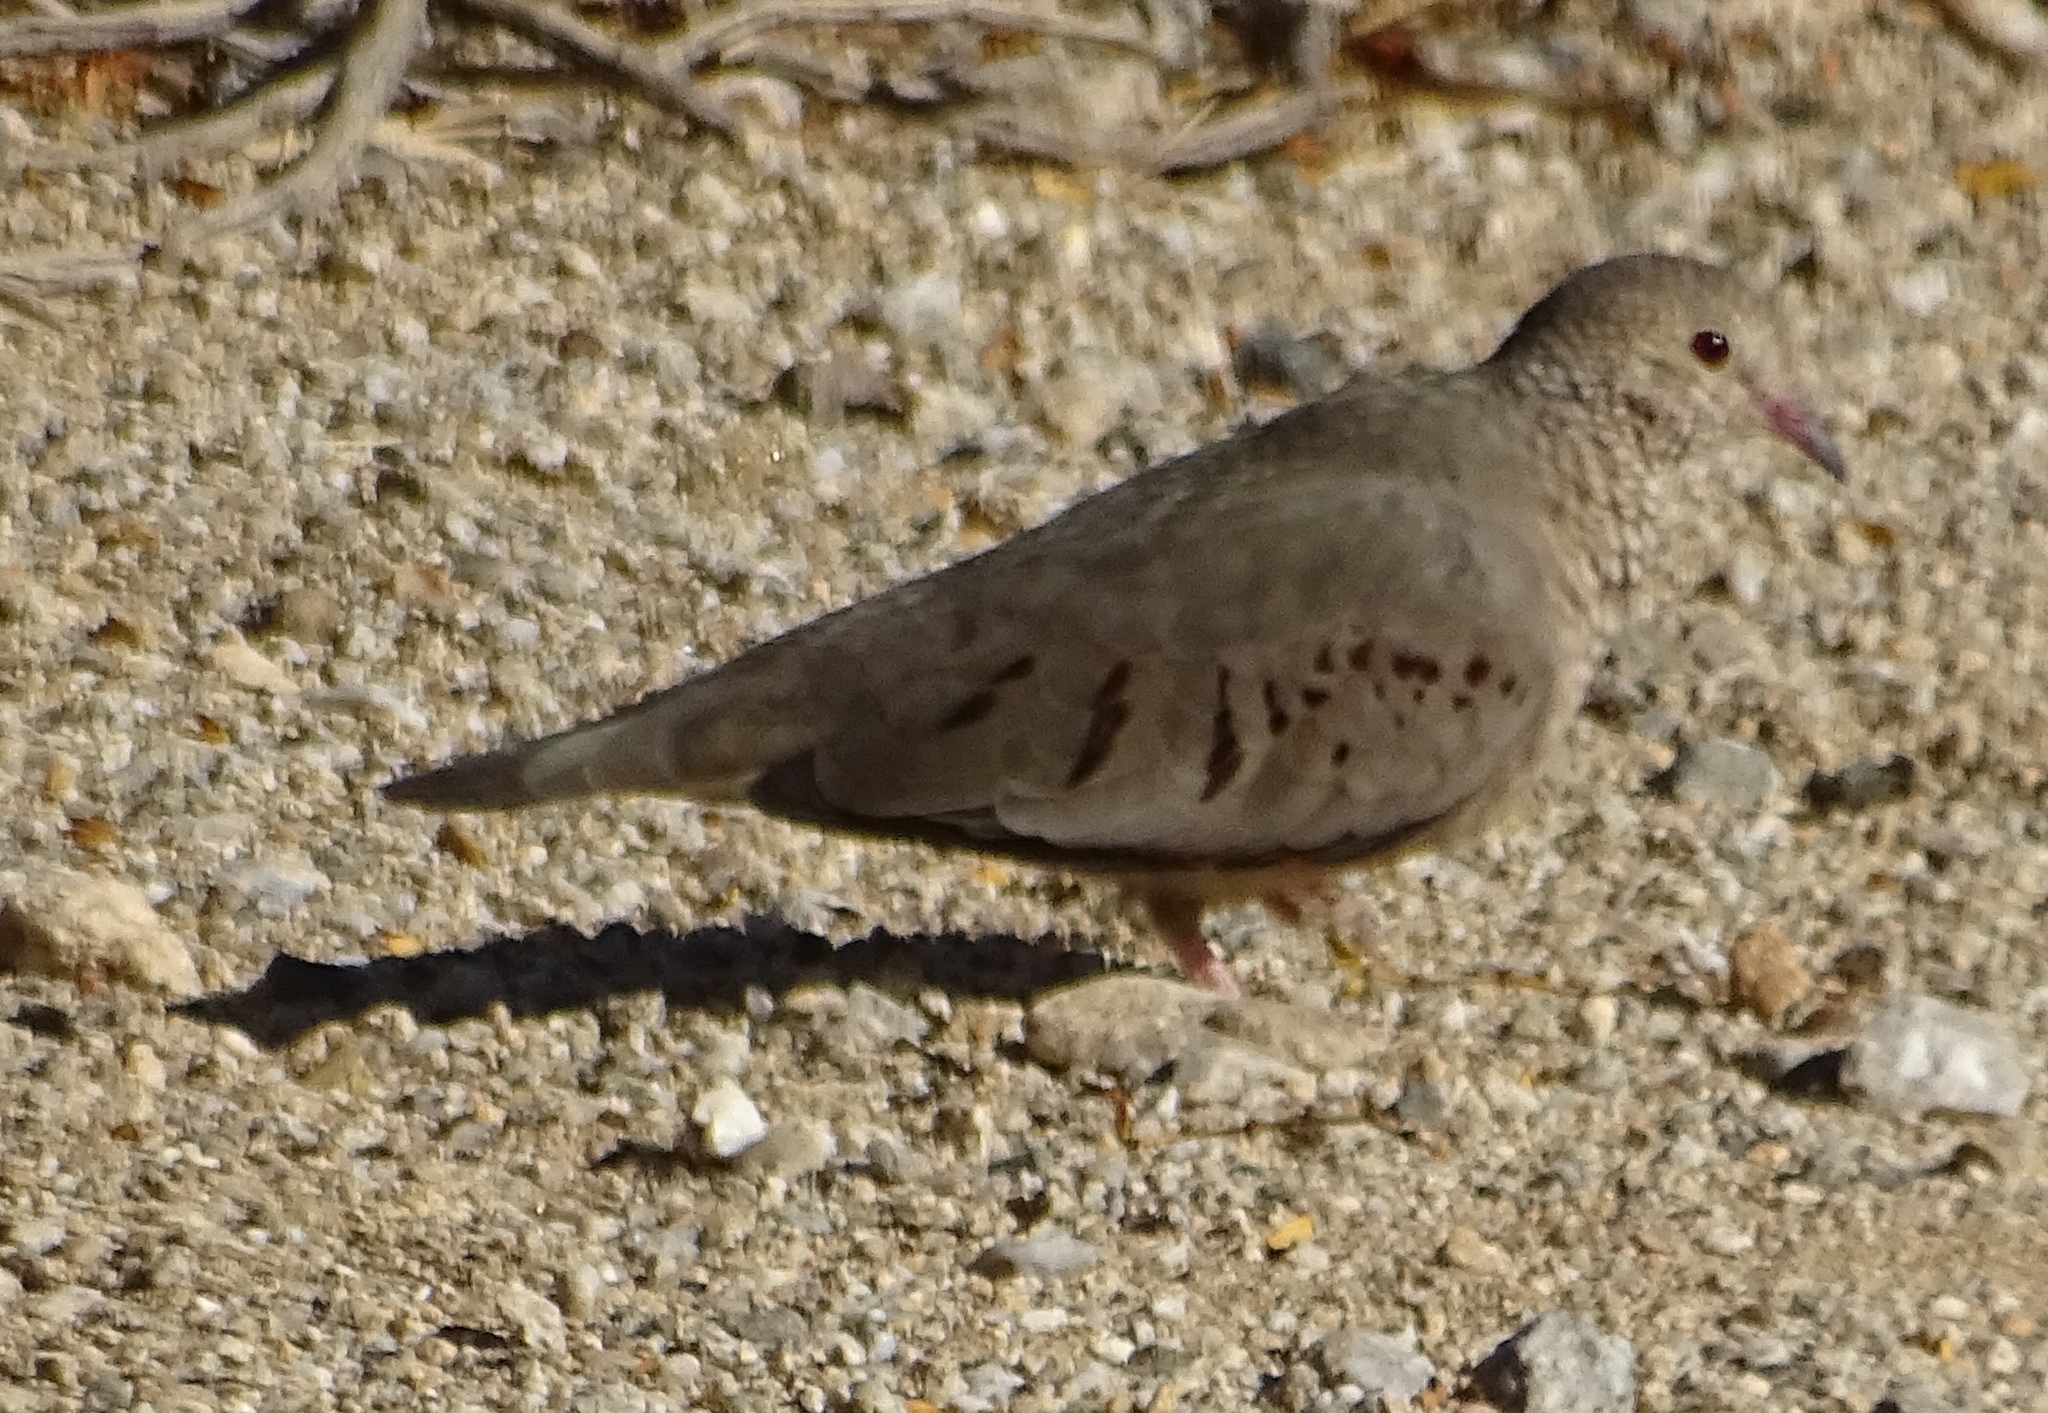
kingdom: Animalia
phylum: Chordata
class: Aves
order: Columbiformes
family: Columbidae
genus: Columbina
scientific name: Columbina passerina
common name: Common ground-dove
